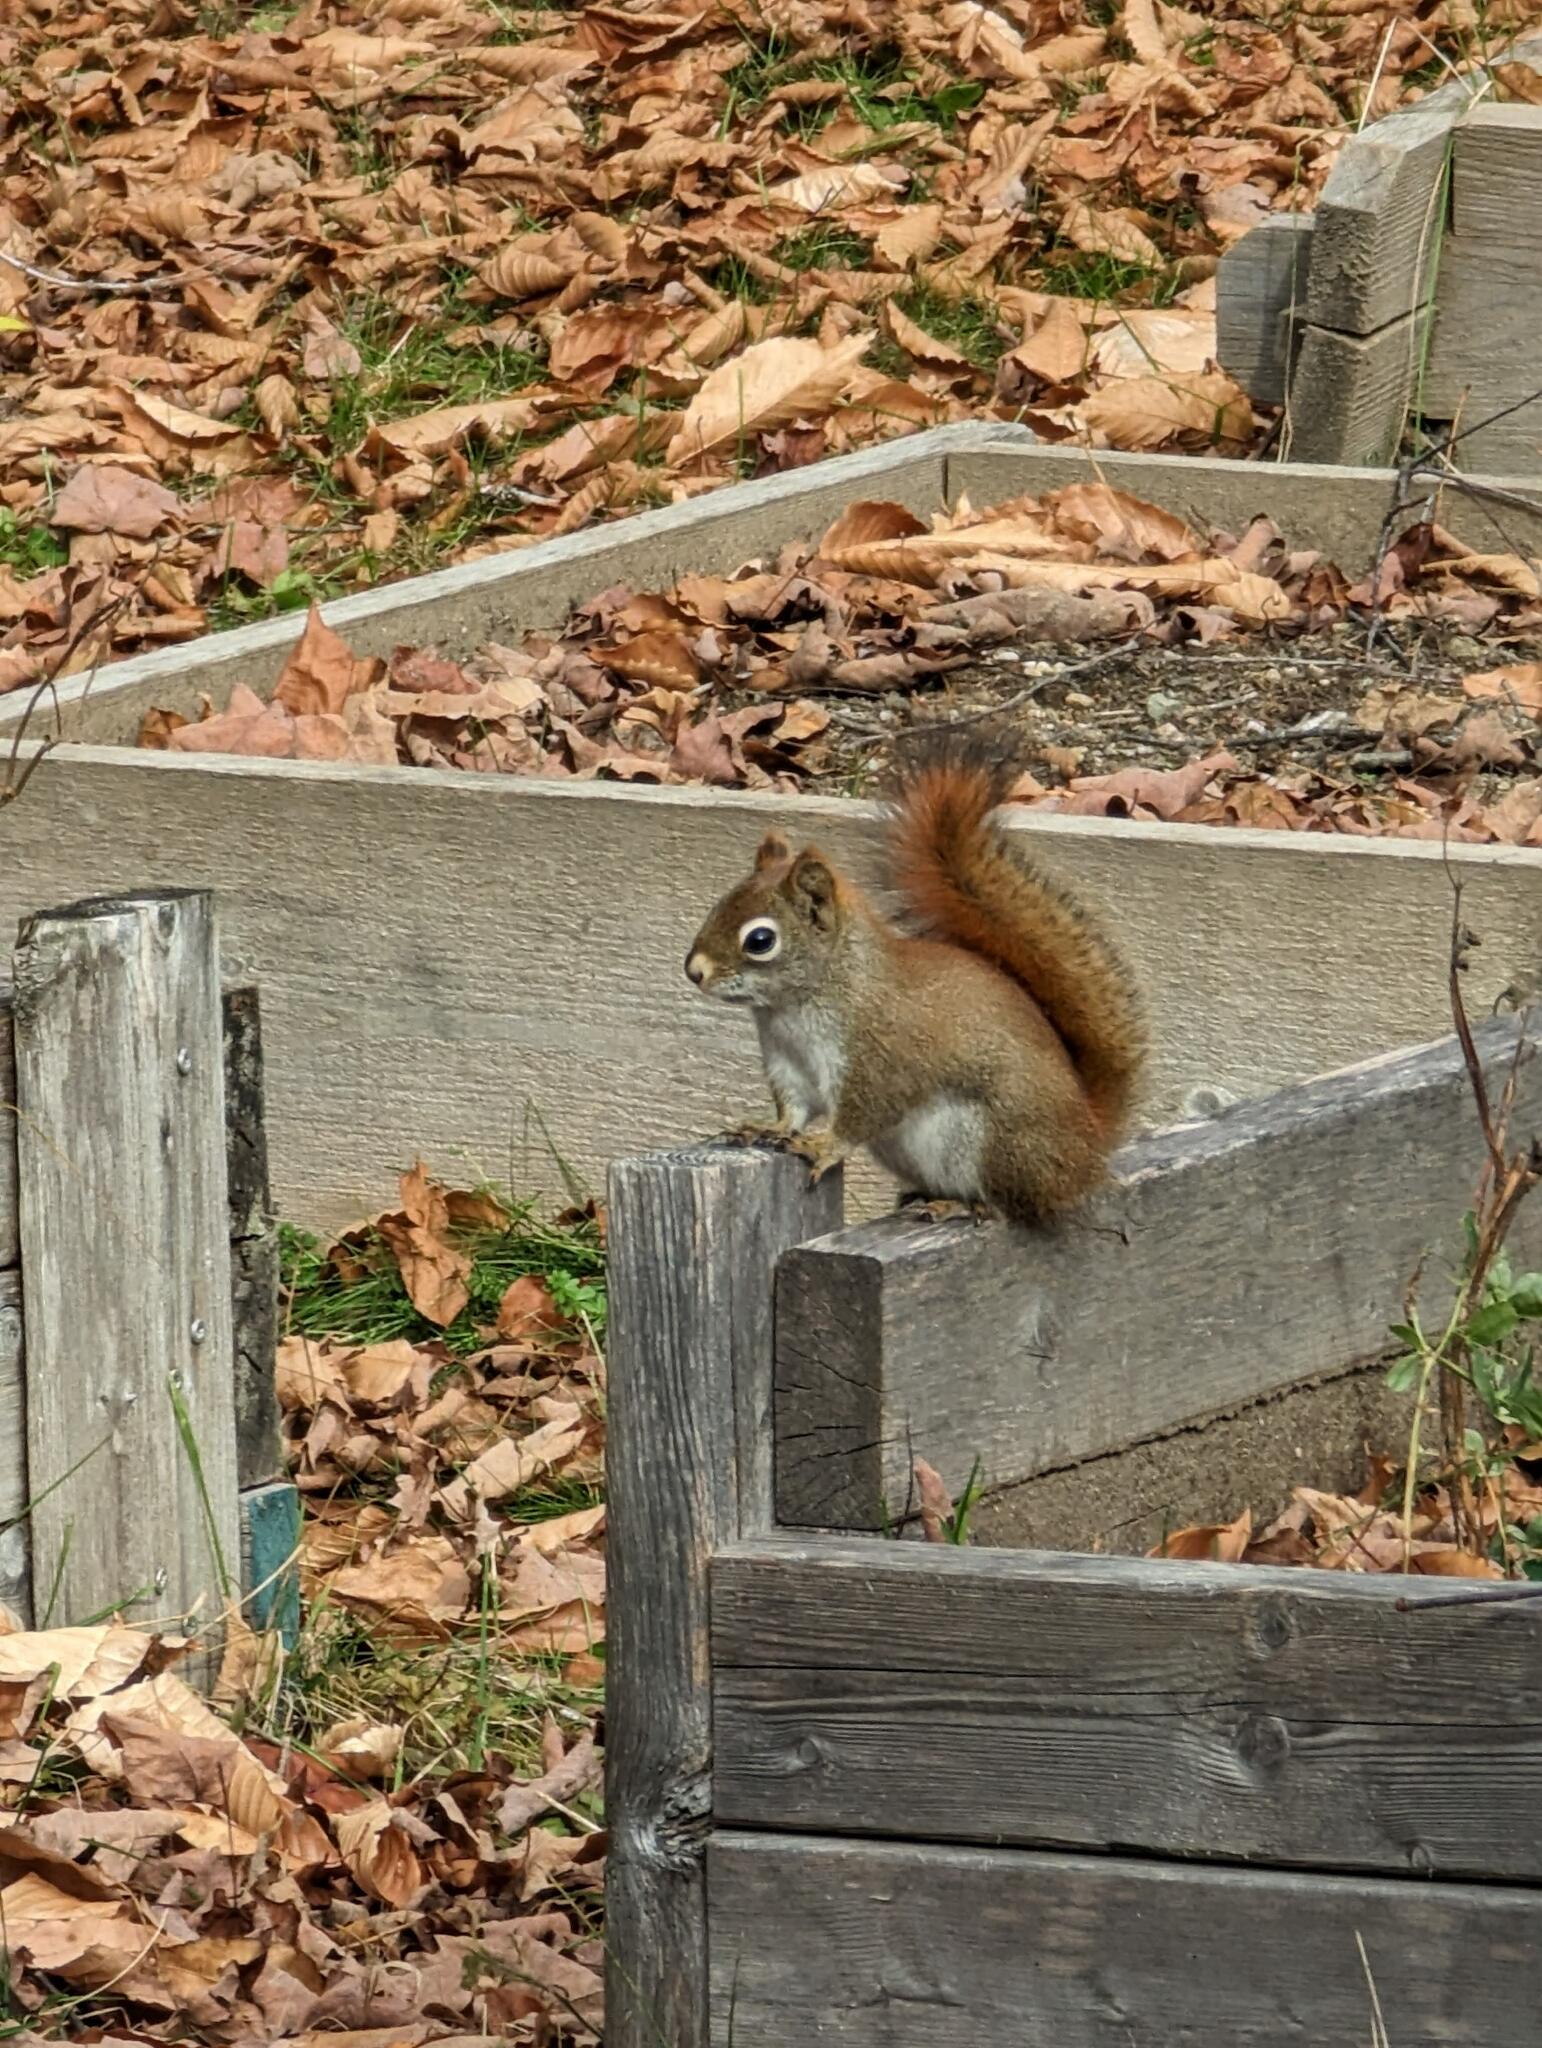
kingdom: Animalia
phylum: Chordata
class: Mammalia
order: Rodentia
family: Sciuridae
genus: Tamiasciurus
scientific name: Tamiasciurus hudsonicus
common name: Red squirrel
